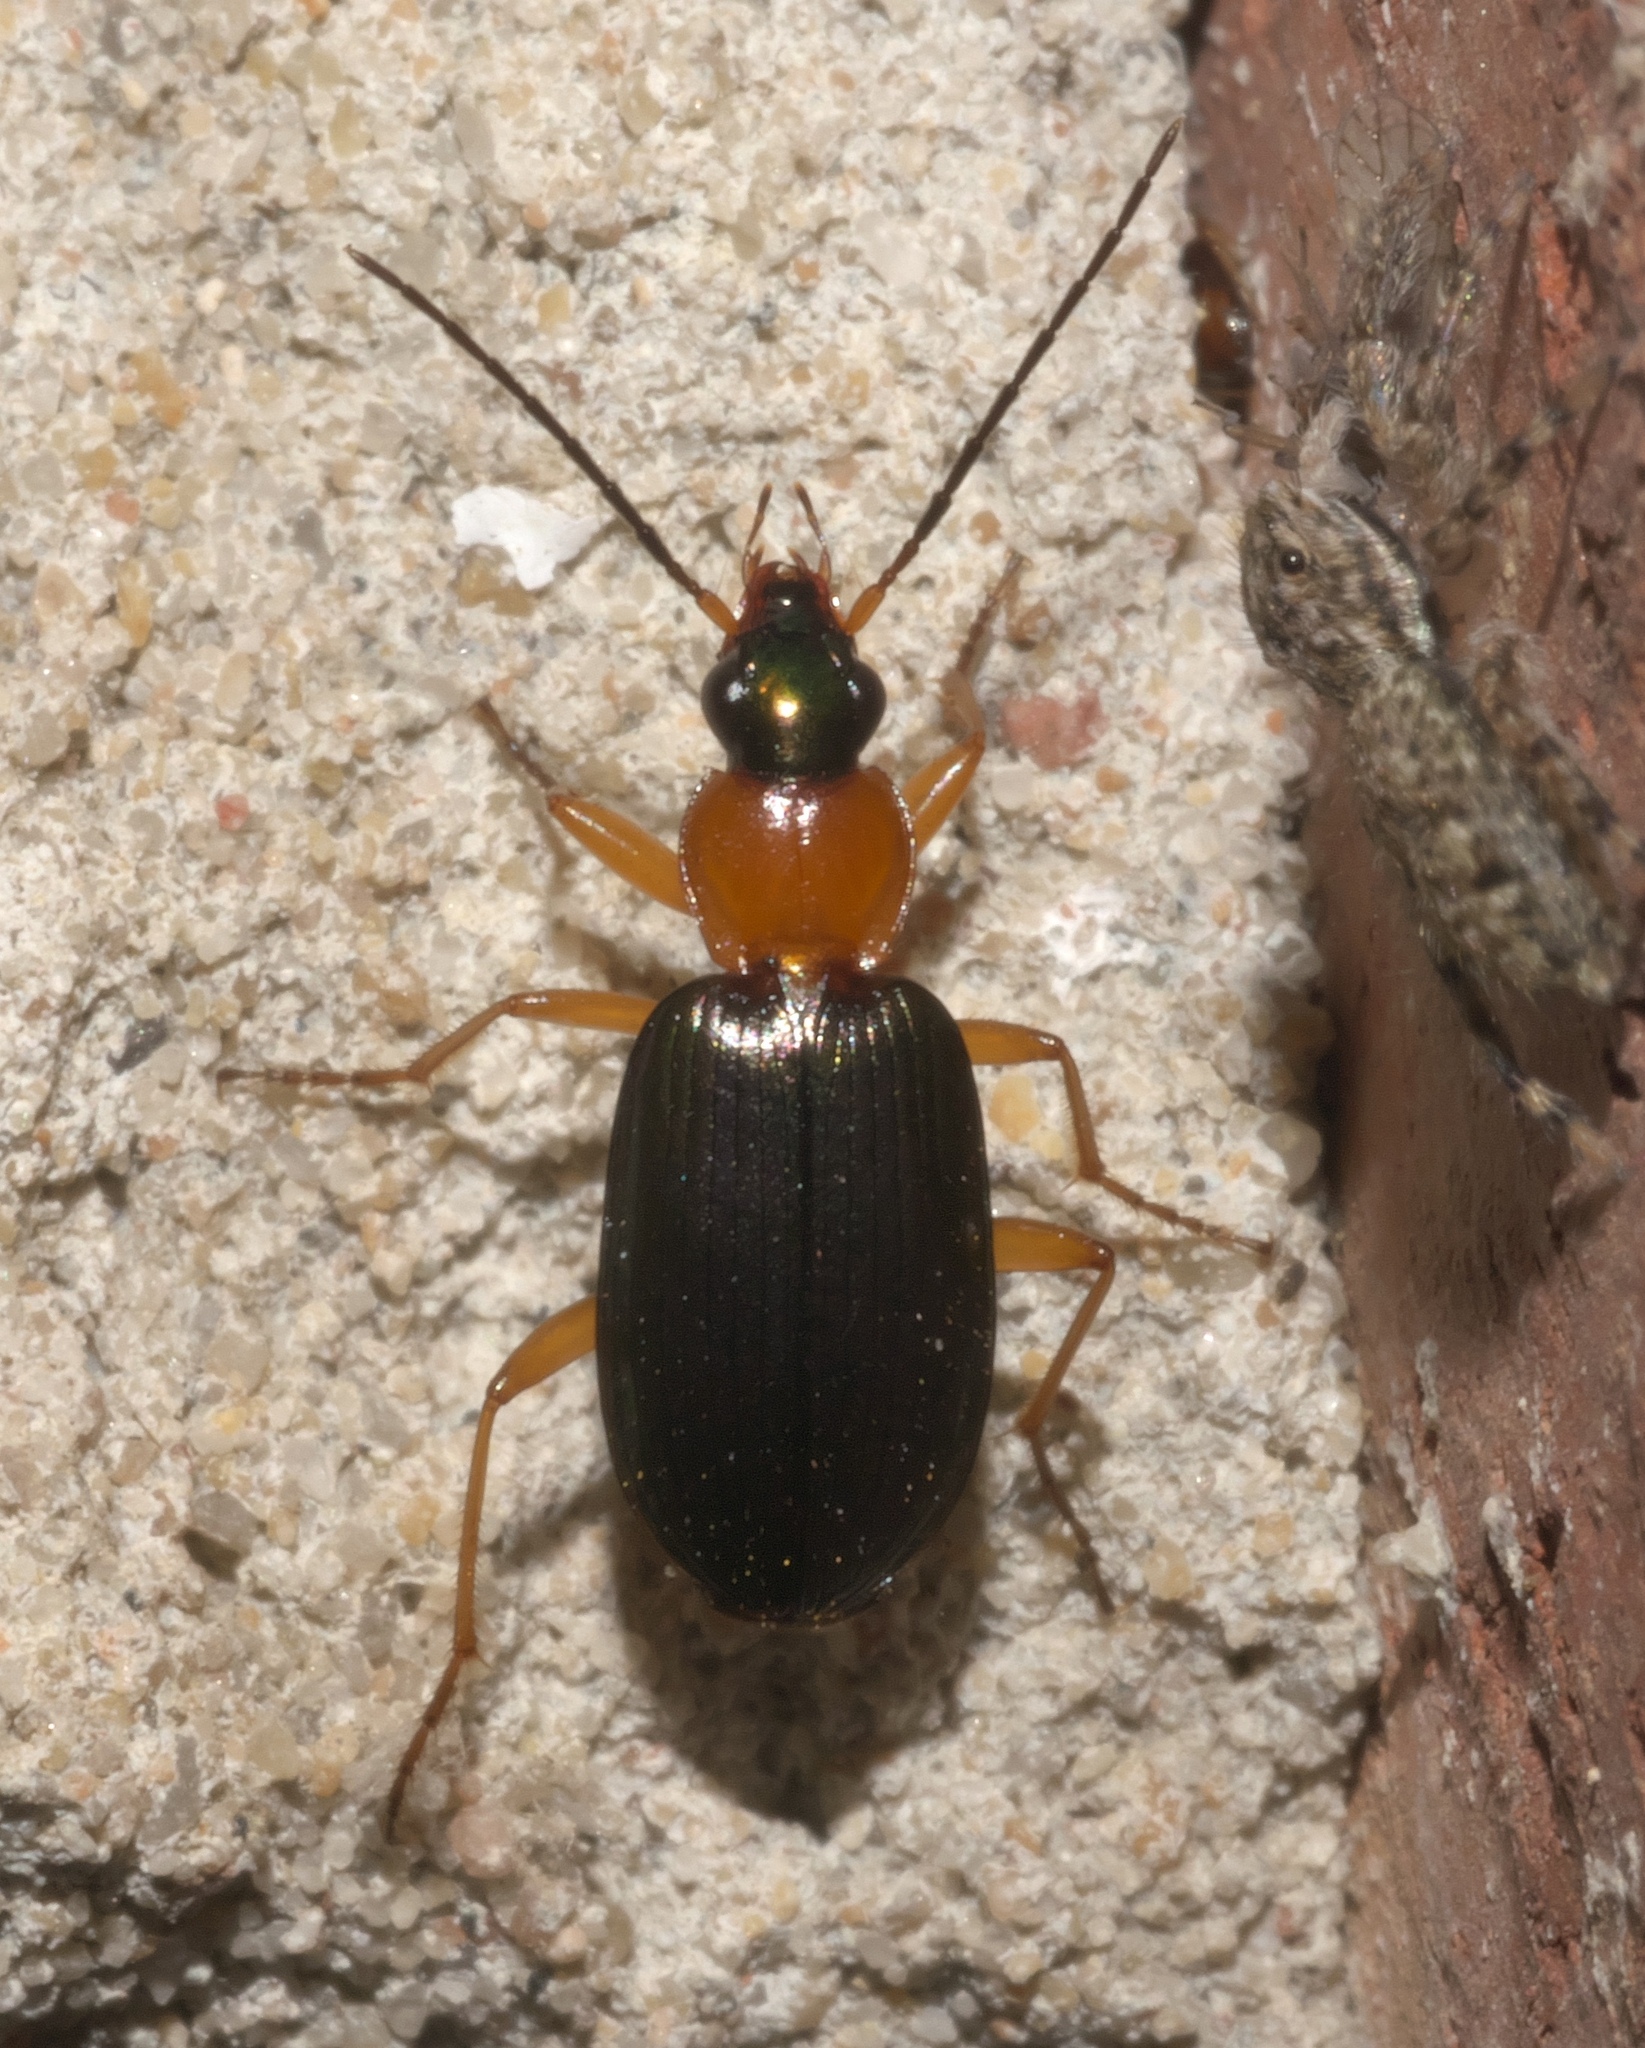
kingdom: Animalia
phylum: Arthropoda
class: Insecta
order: Coleoptera
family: Carabidae
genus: Agonum
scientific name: Agonum decorum
